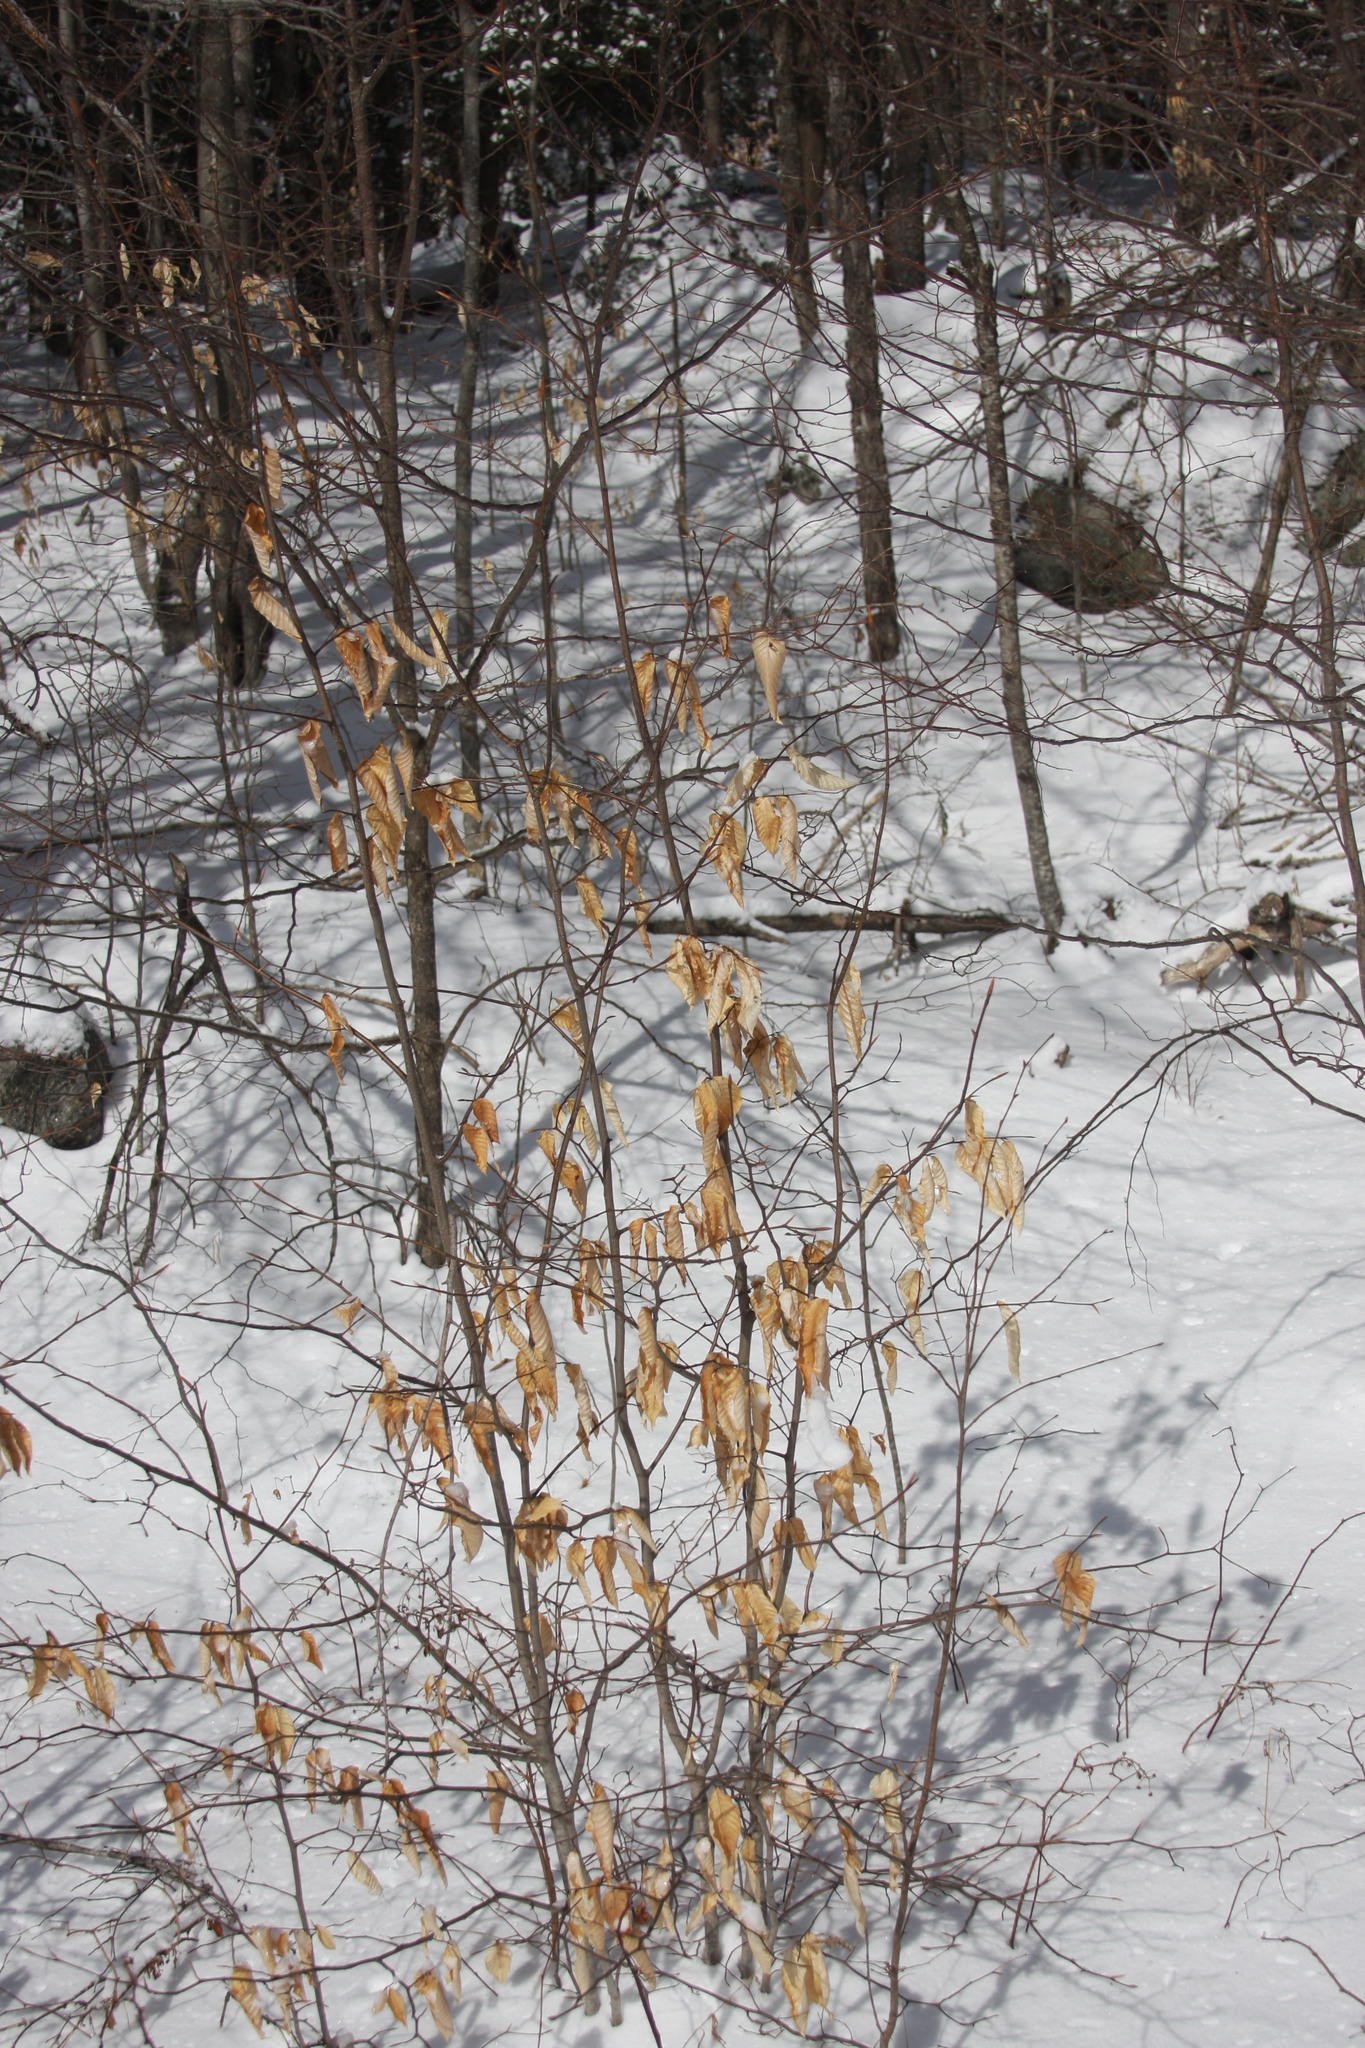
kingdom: Plantae
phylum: Tracheophyta
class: Magnoliopsida
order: Fagales
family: Fagaceae
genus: Fagus
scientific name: Fagus grandifolia
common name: American beech
